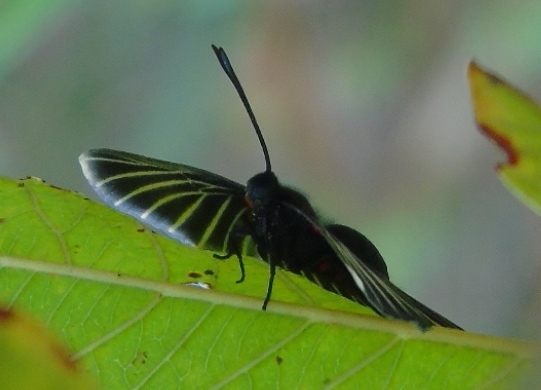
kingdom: Animalia
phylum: Arthropoda
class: Insecta
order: Lepidoptera
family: Lycaenidae
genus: Melanis
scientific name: Melanis
